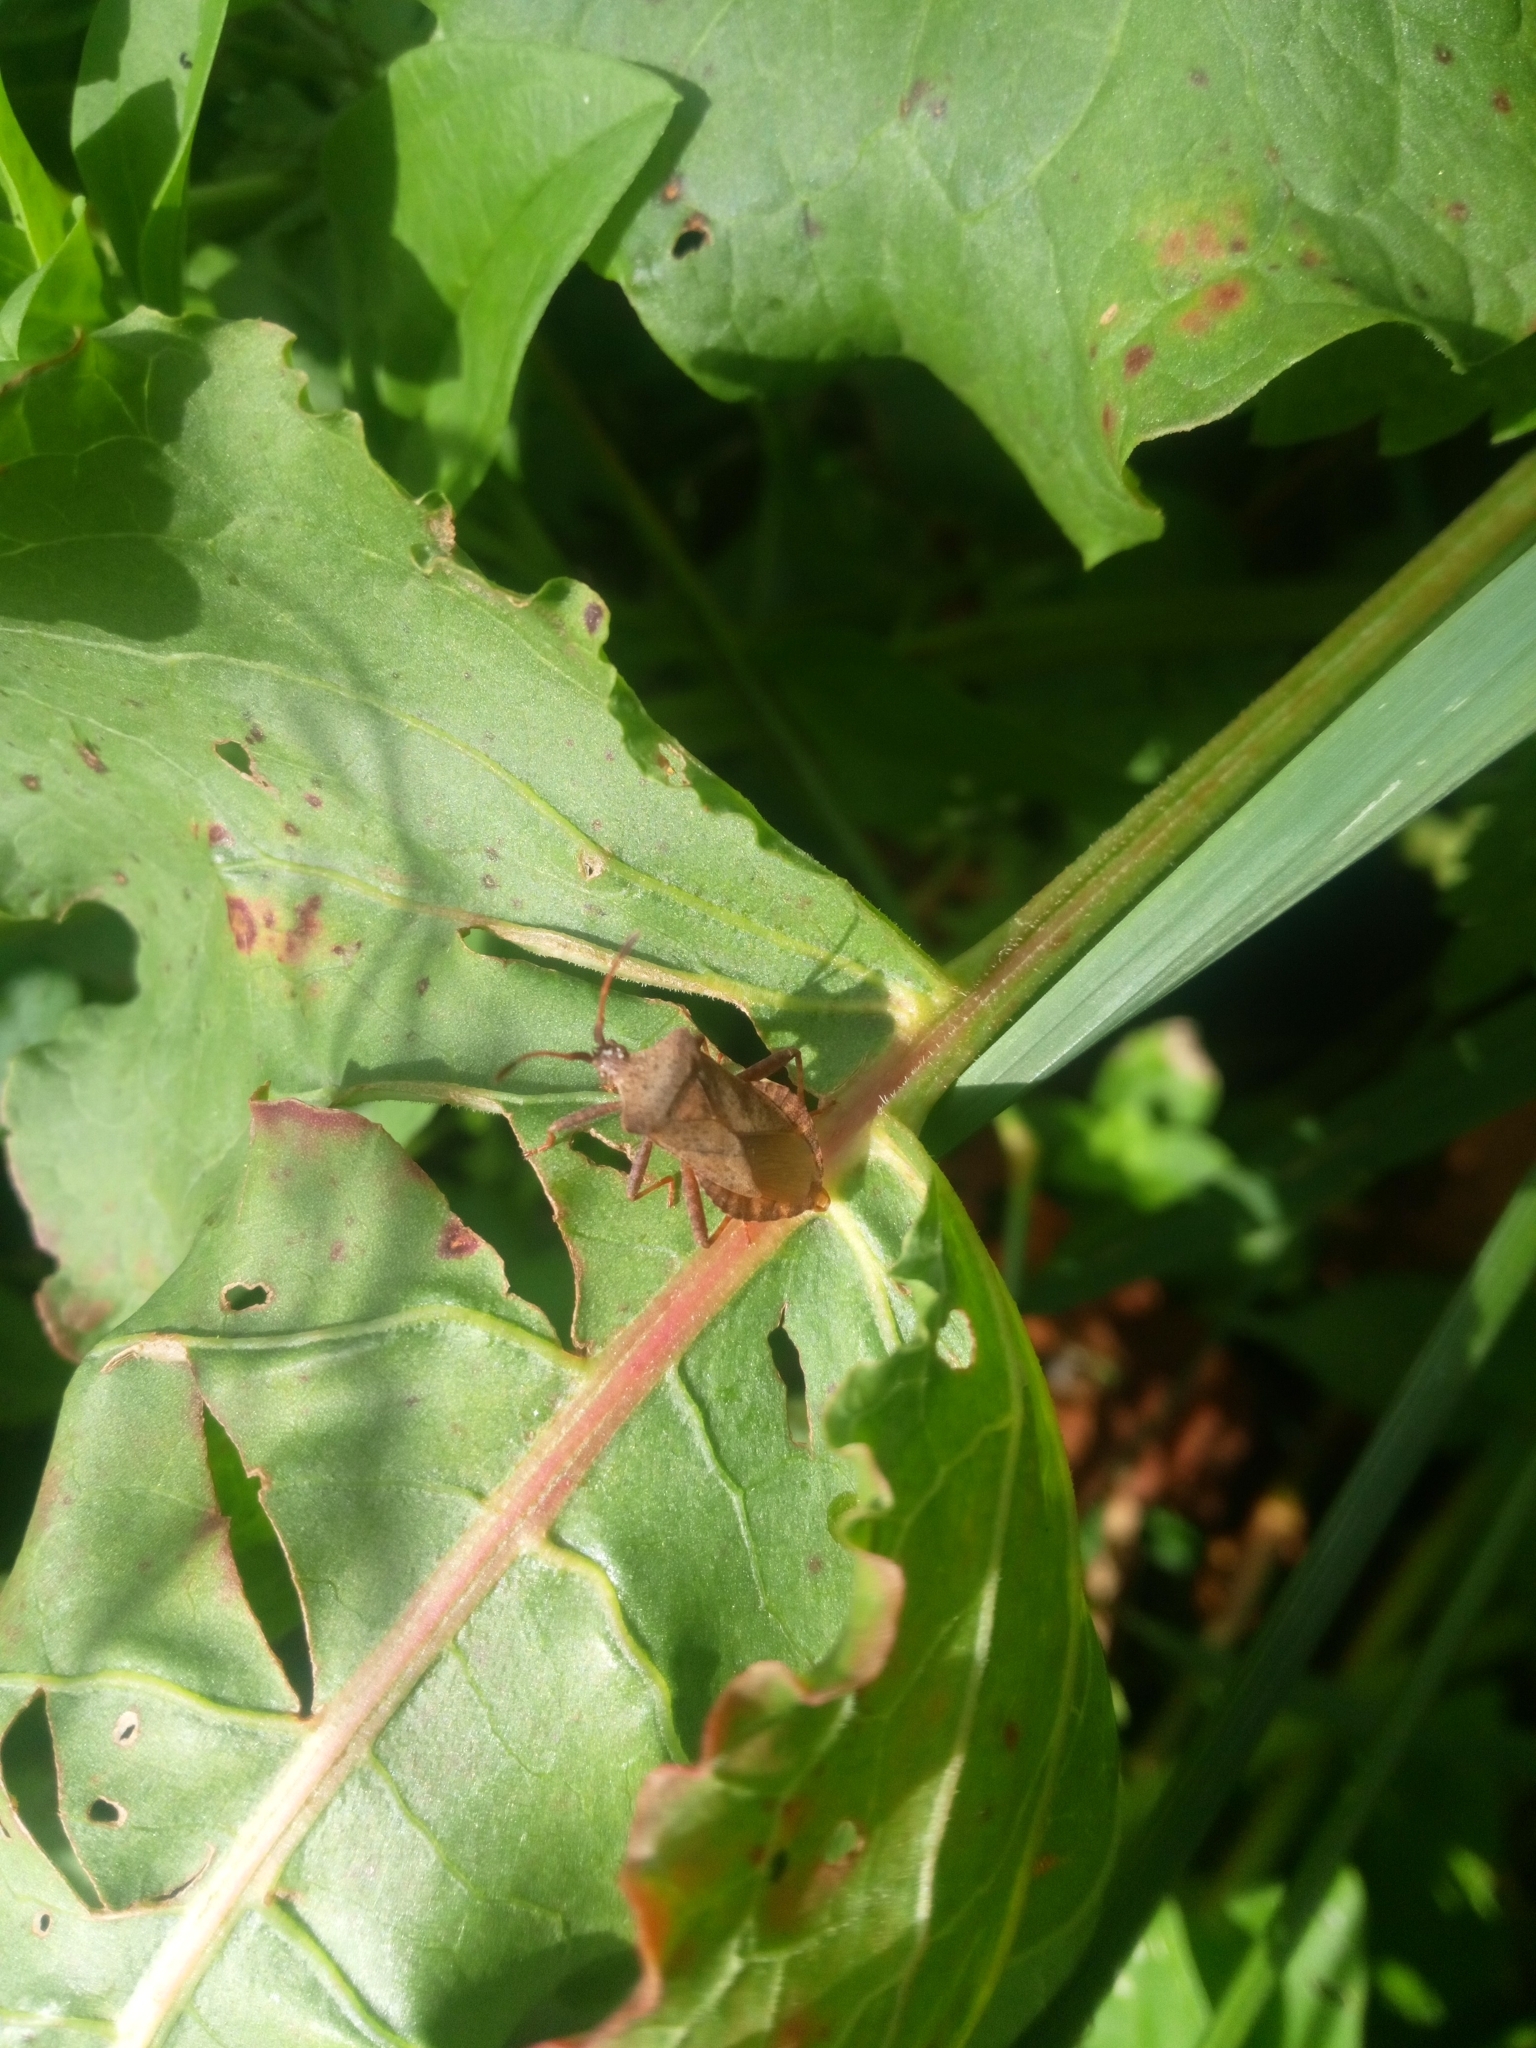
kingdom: Animalia
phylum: Arthropoda
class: Insecta
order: Hemiptera
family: Coreidae
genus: Coreus
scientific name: Coreus marginatus
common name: Dock bug
